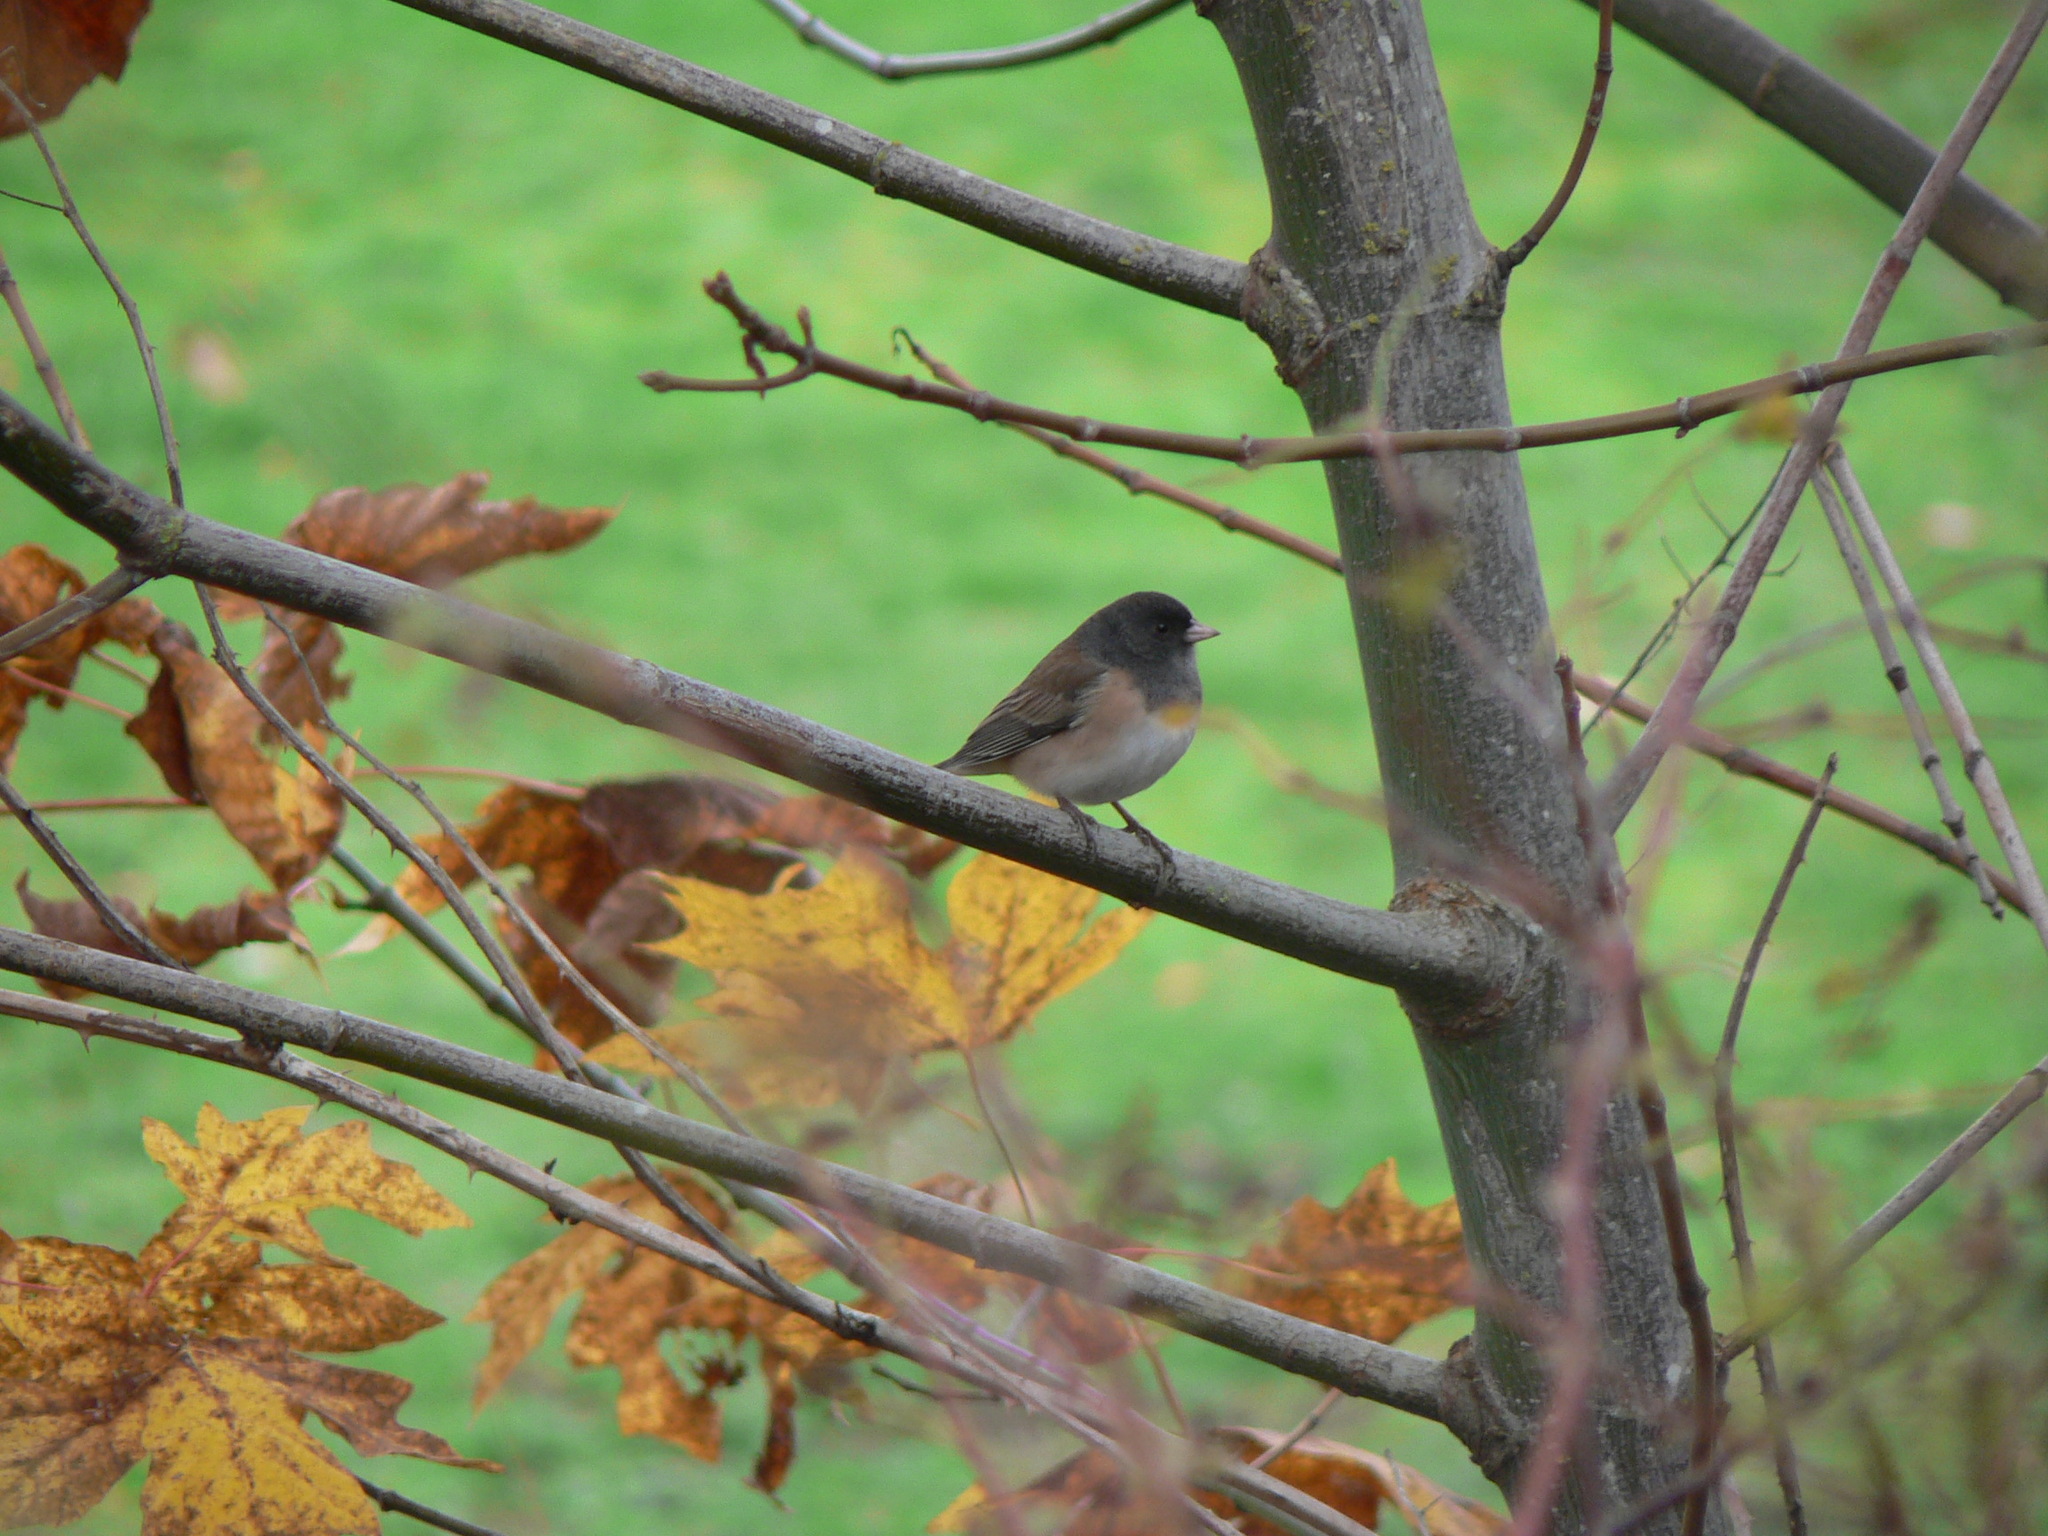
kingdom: Animalia
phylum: Chordata
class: Aves
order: Passeriformes
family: Passerellidae
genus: Junco
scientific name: Junco hyemalis
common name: Dark-eyed junco
